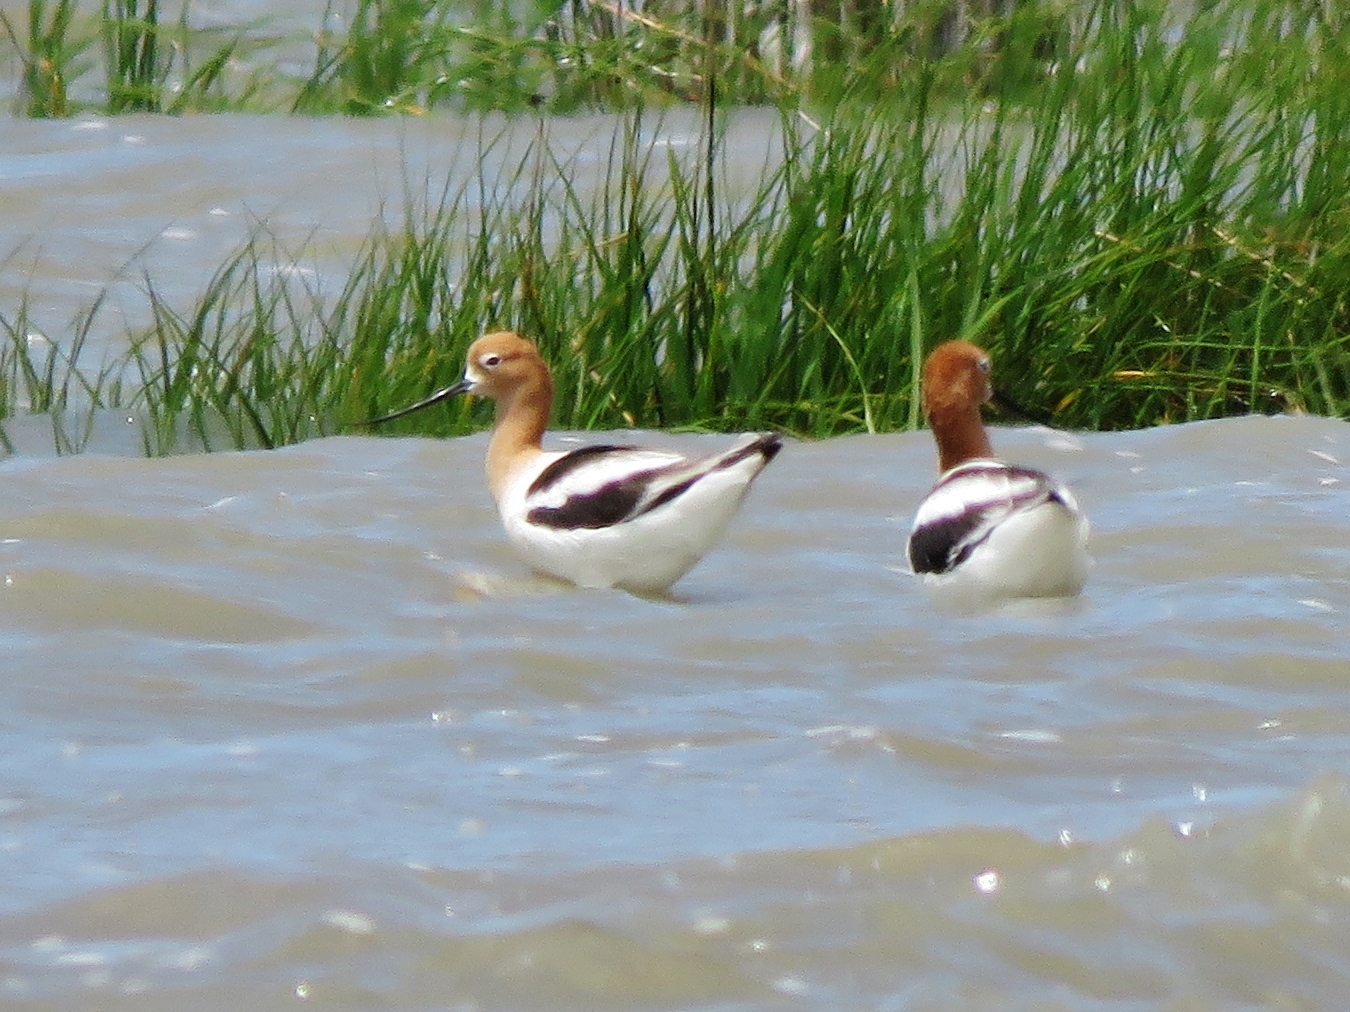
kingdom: Animalia
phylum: Chordata
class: Aves
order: Charadriiformes
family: Recurvirostridae
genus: Recurvirostra
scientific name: Recurvirostra americana
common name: American avocet
